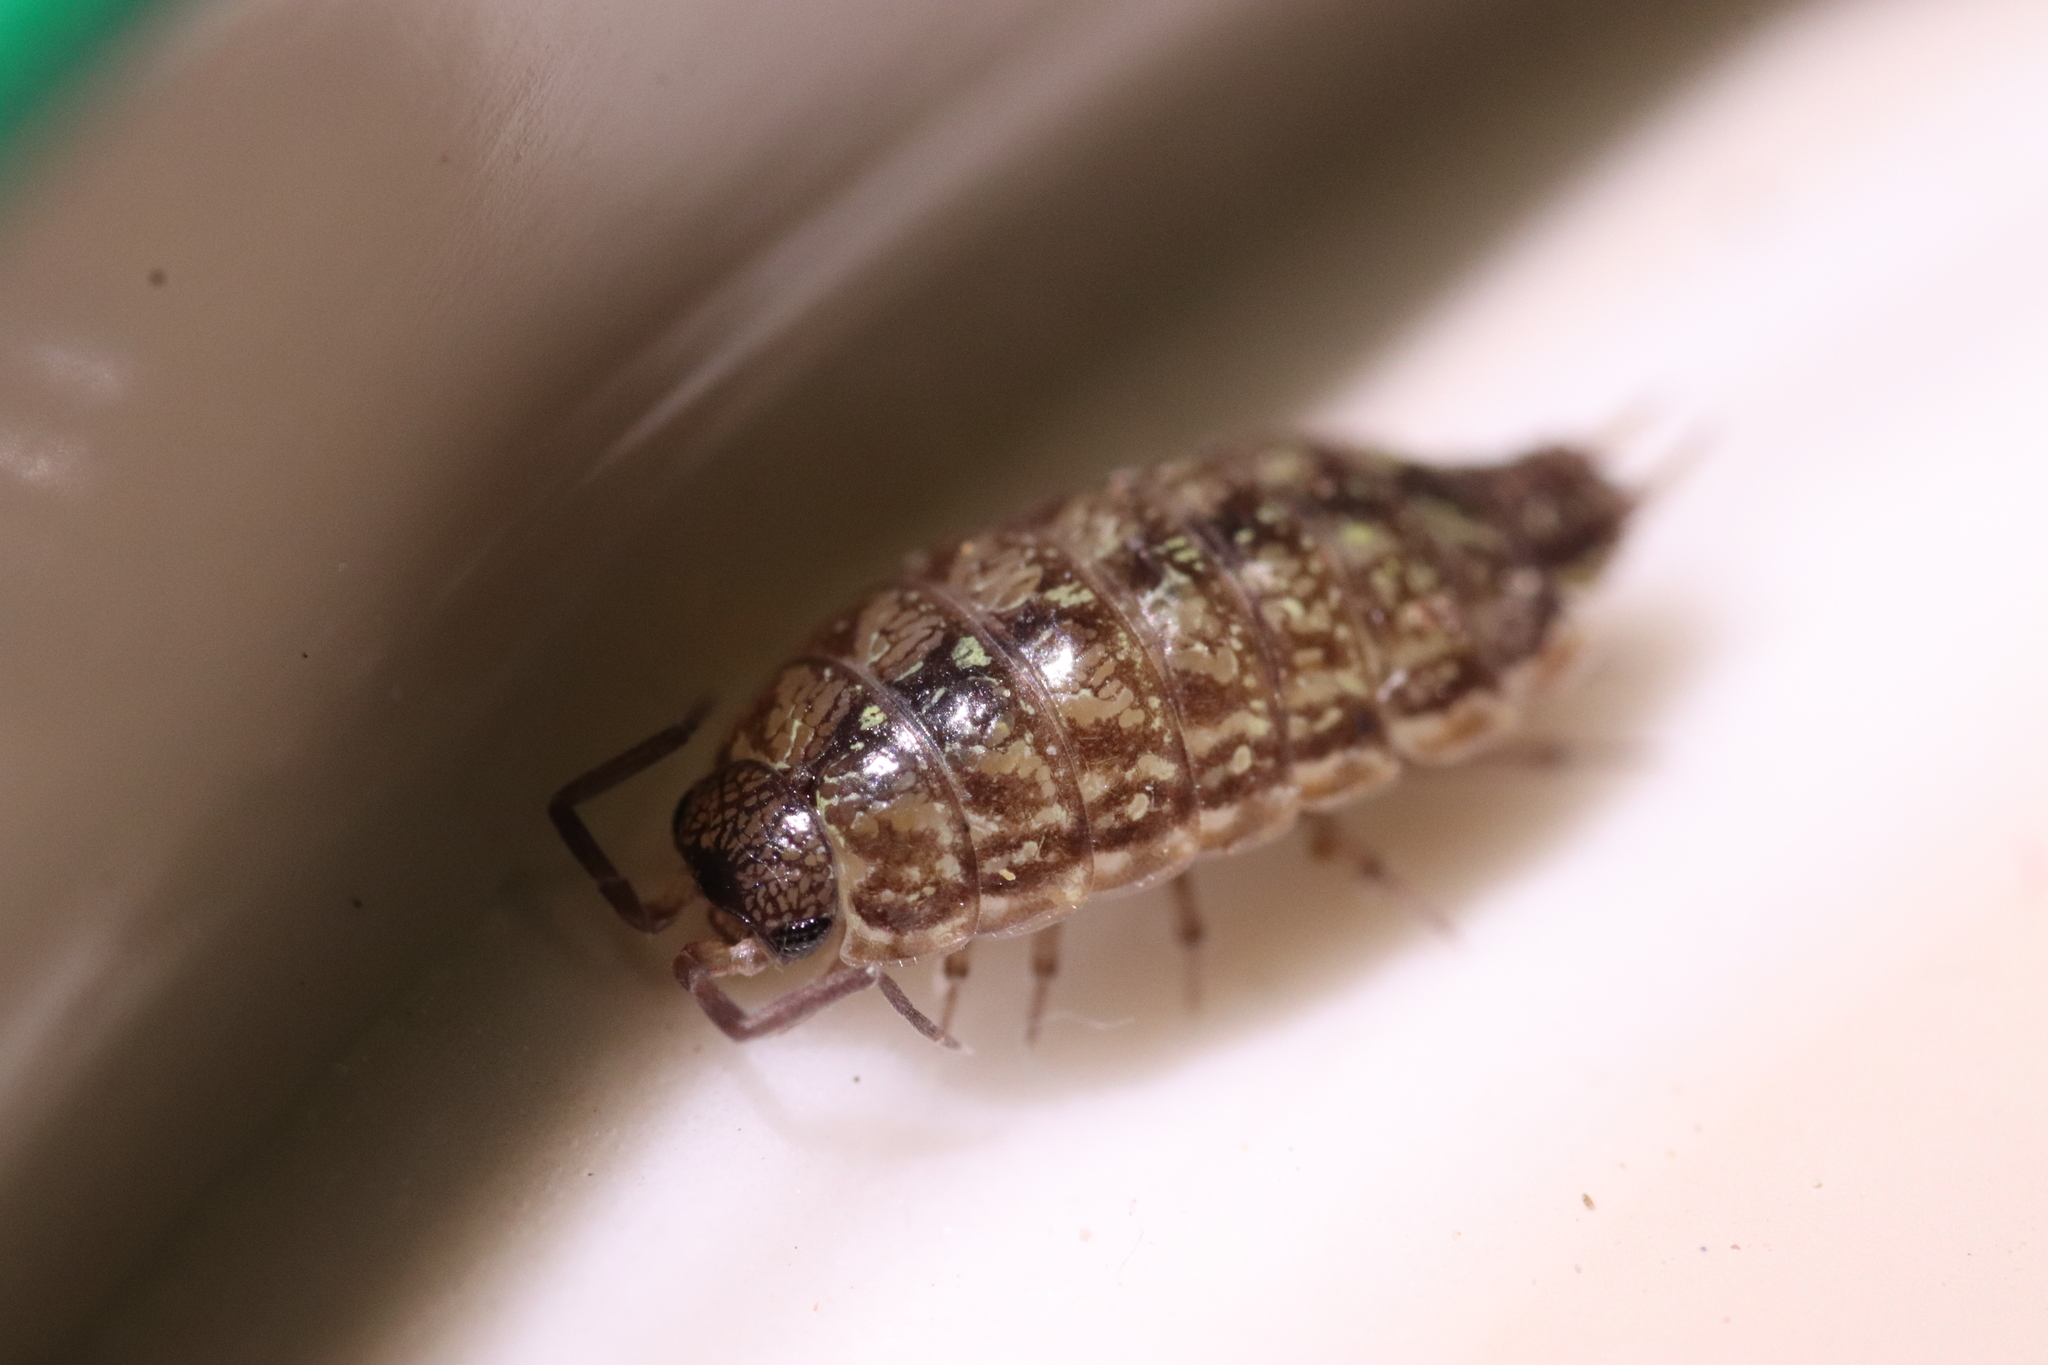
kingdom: Animalia
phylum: Arthropoda
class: Malacostraca
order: Isopoda
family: Philosciidae
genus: Philoscia
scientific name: Philoscia affinis
